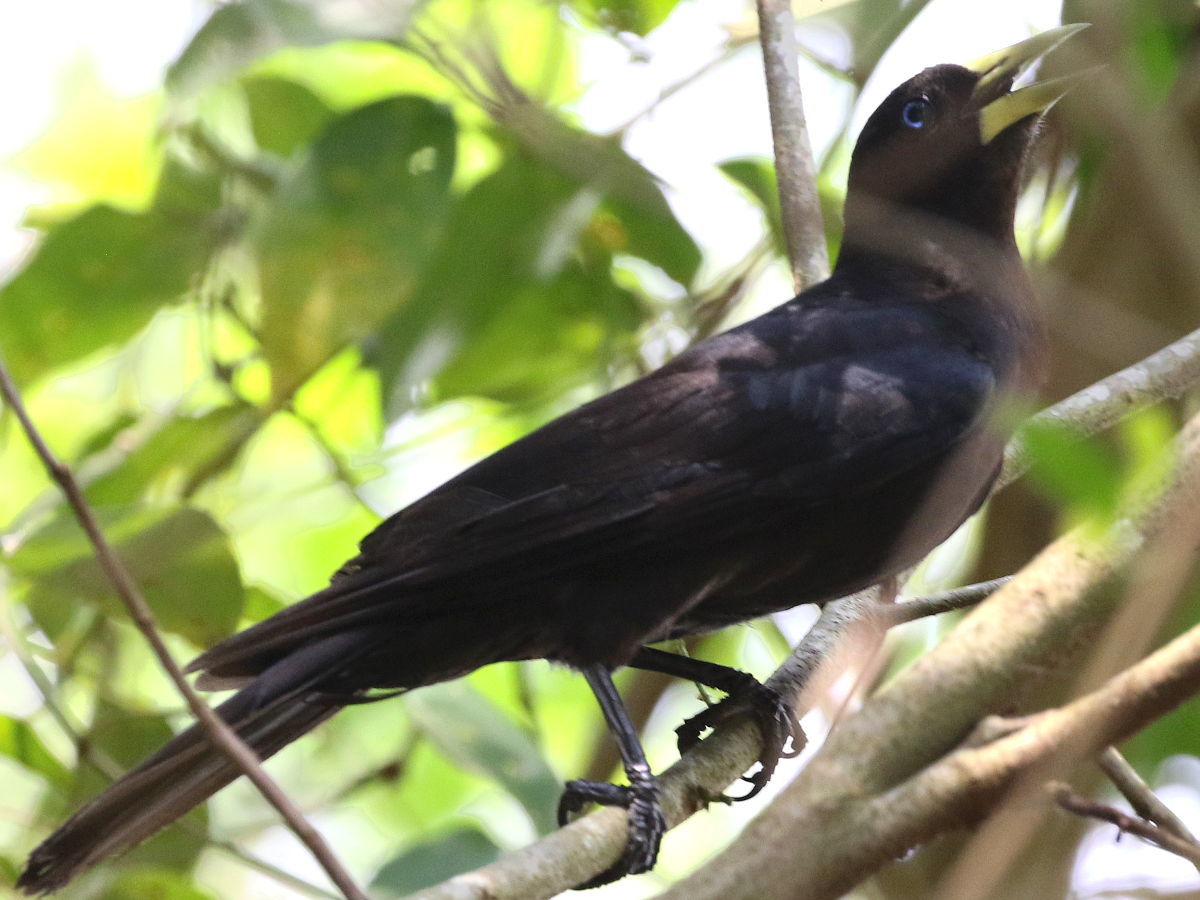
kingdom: Animalia
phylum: Chordata
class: Aves
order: Passeriformes
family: Icteridae
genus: Cacicus
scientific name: Cacicus haemorrhous
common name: Red-rumped cacique
